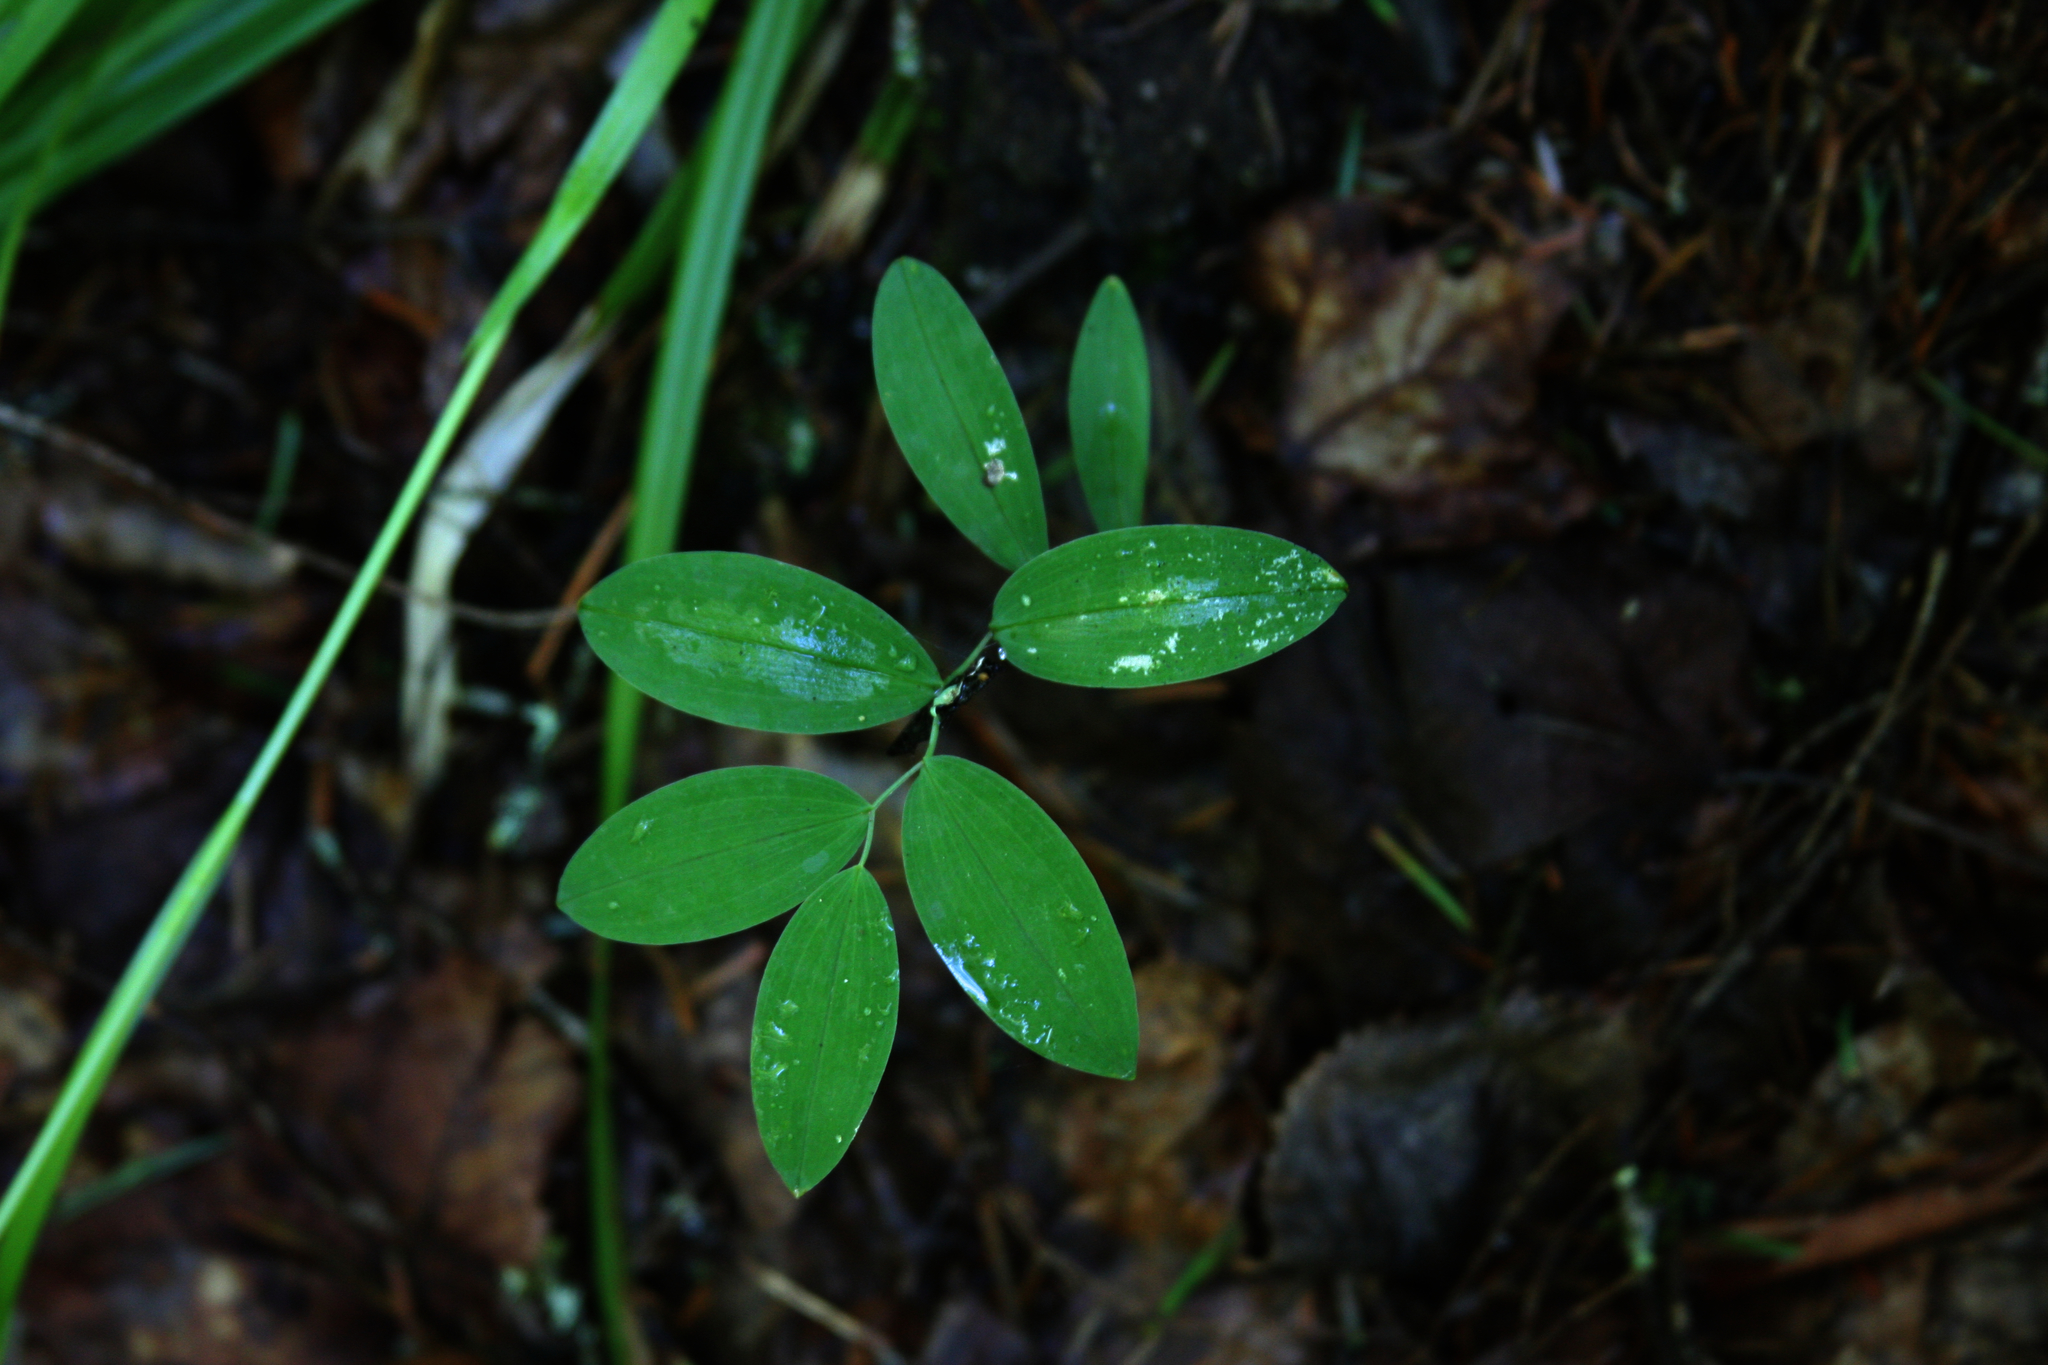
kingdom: Plantae
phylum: Tracheophyta
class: Liliopsida
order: Liliales
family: Colchicaceae
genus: Uvularia
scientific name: Uvularia sessilifolia
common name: Straw-lily
